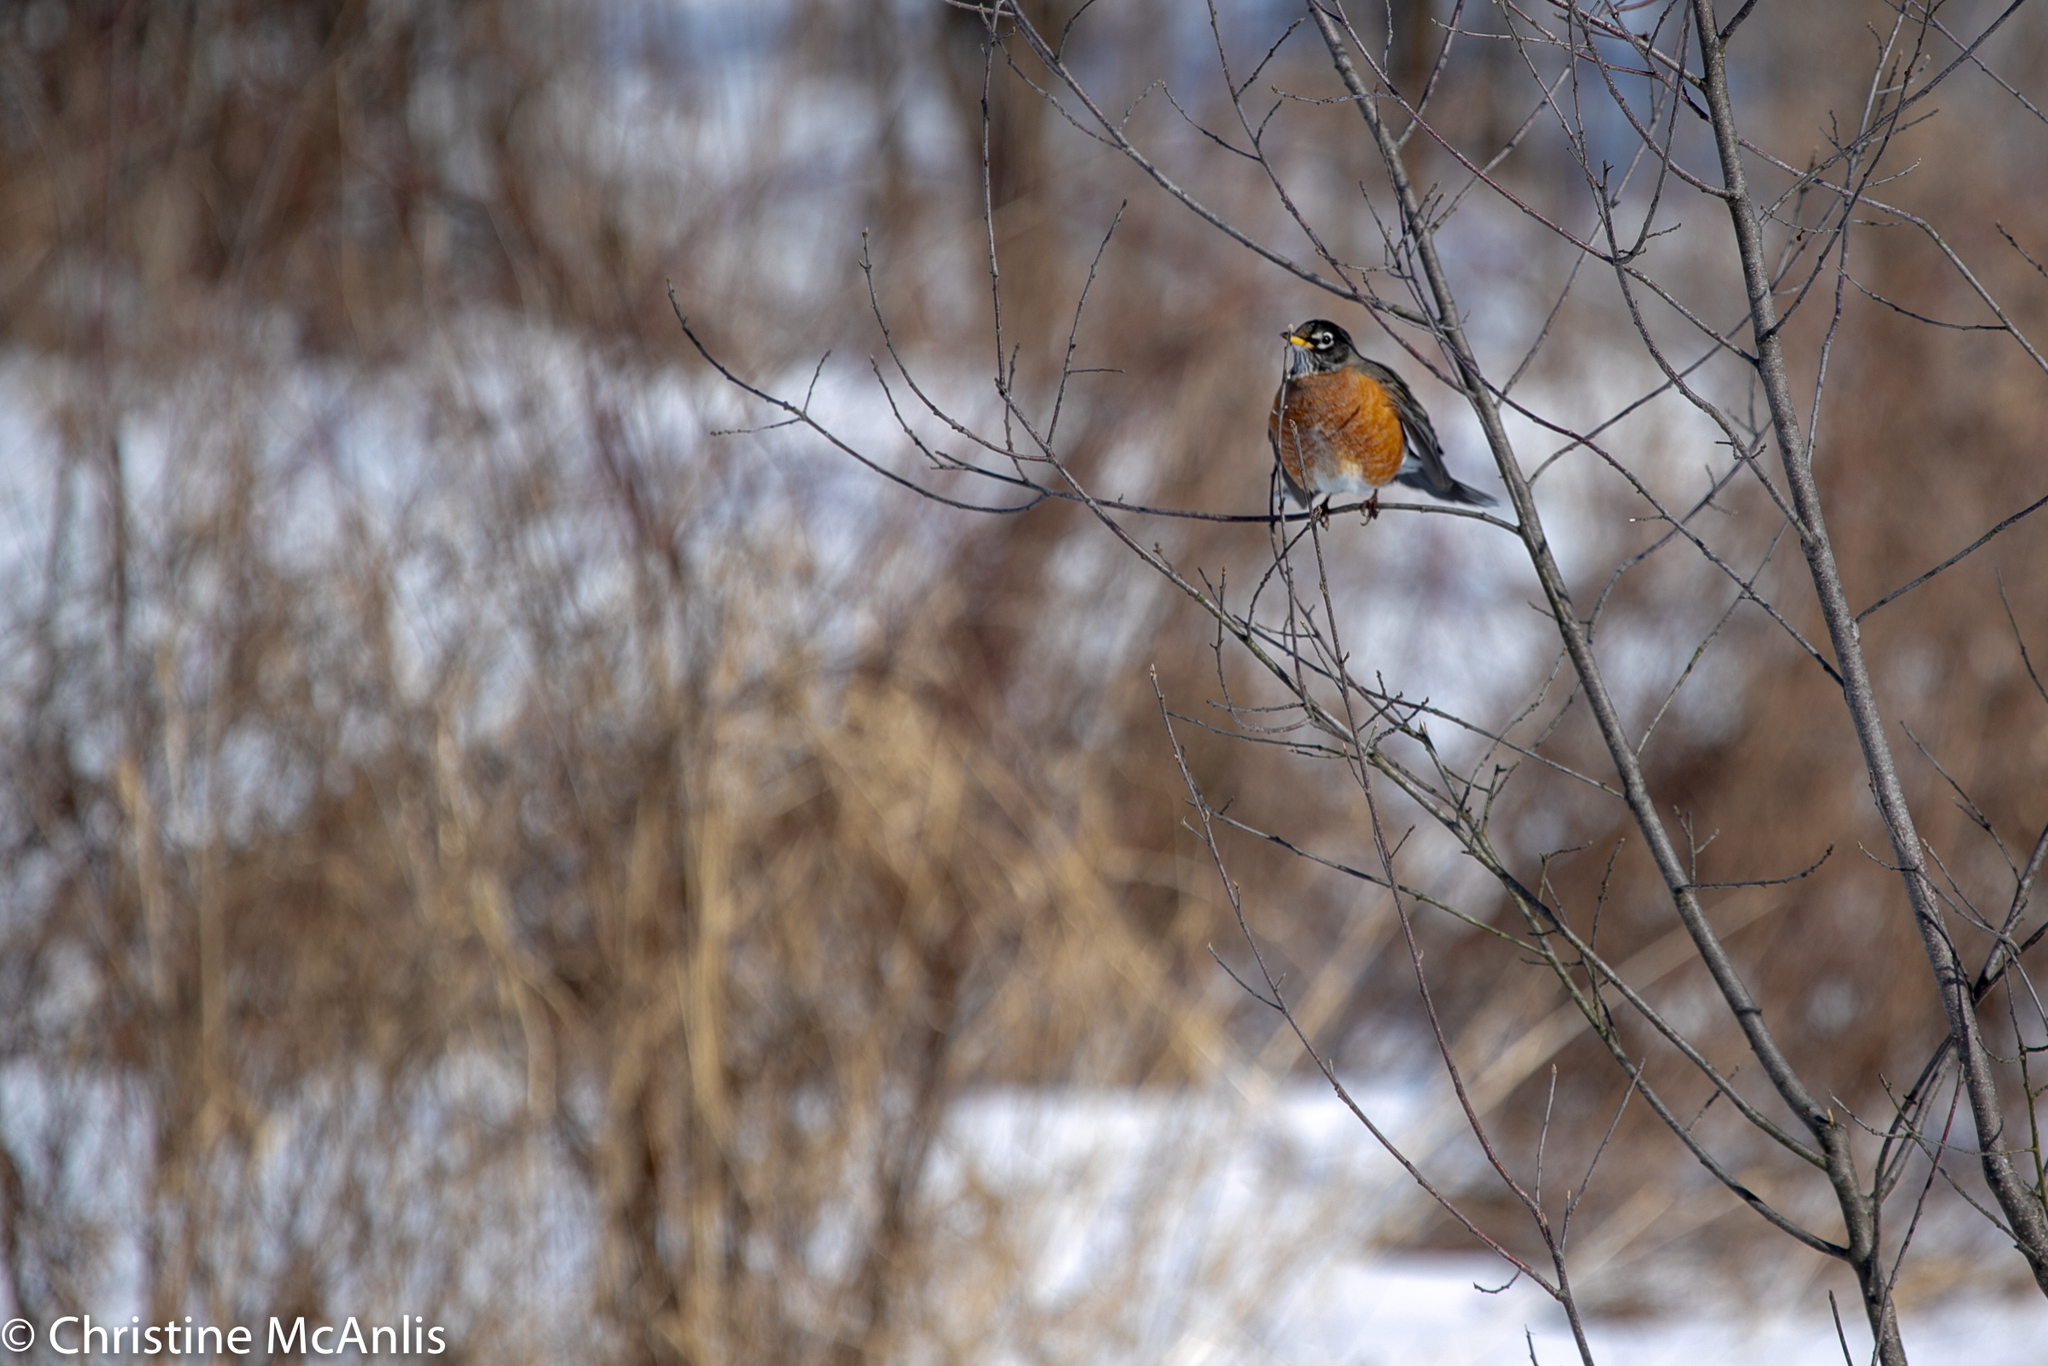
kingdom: Animalia
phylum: Chordata
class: Aves
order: Passeriformes
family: Turdidae
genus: Turdus
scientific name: Turdus migratorius
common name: American robin
